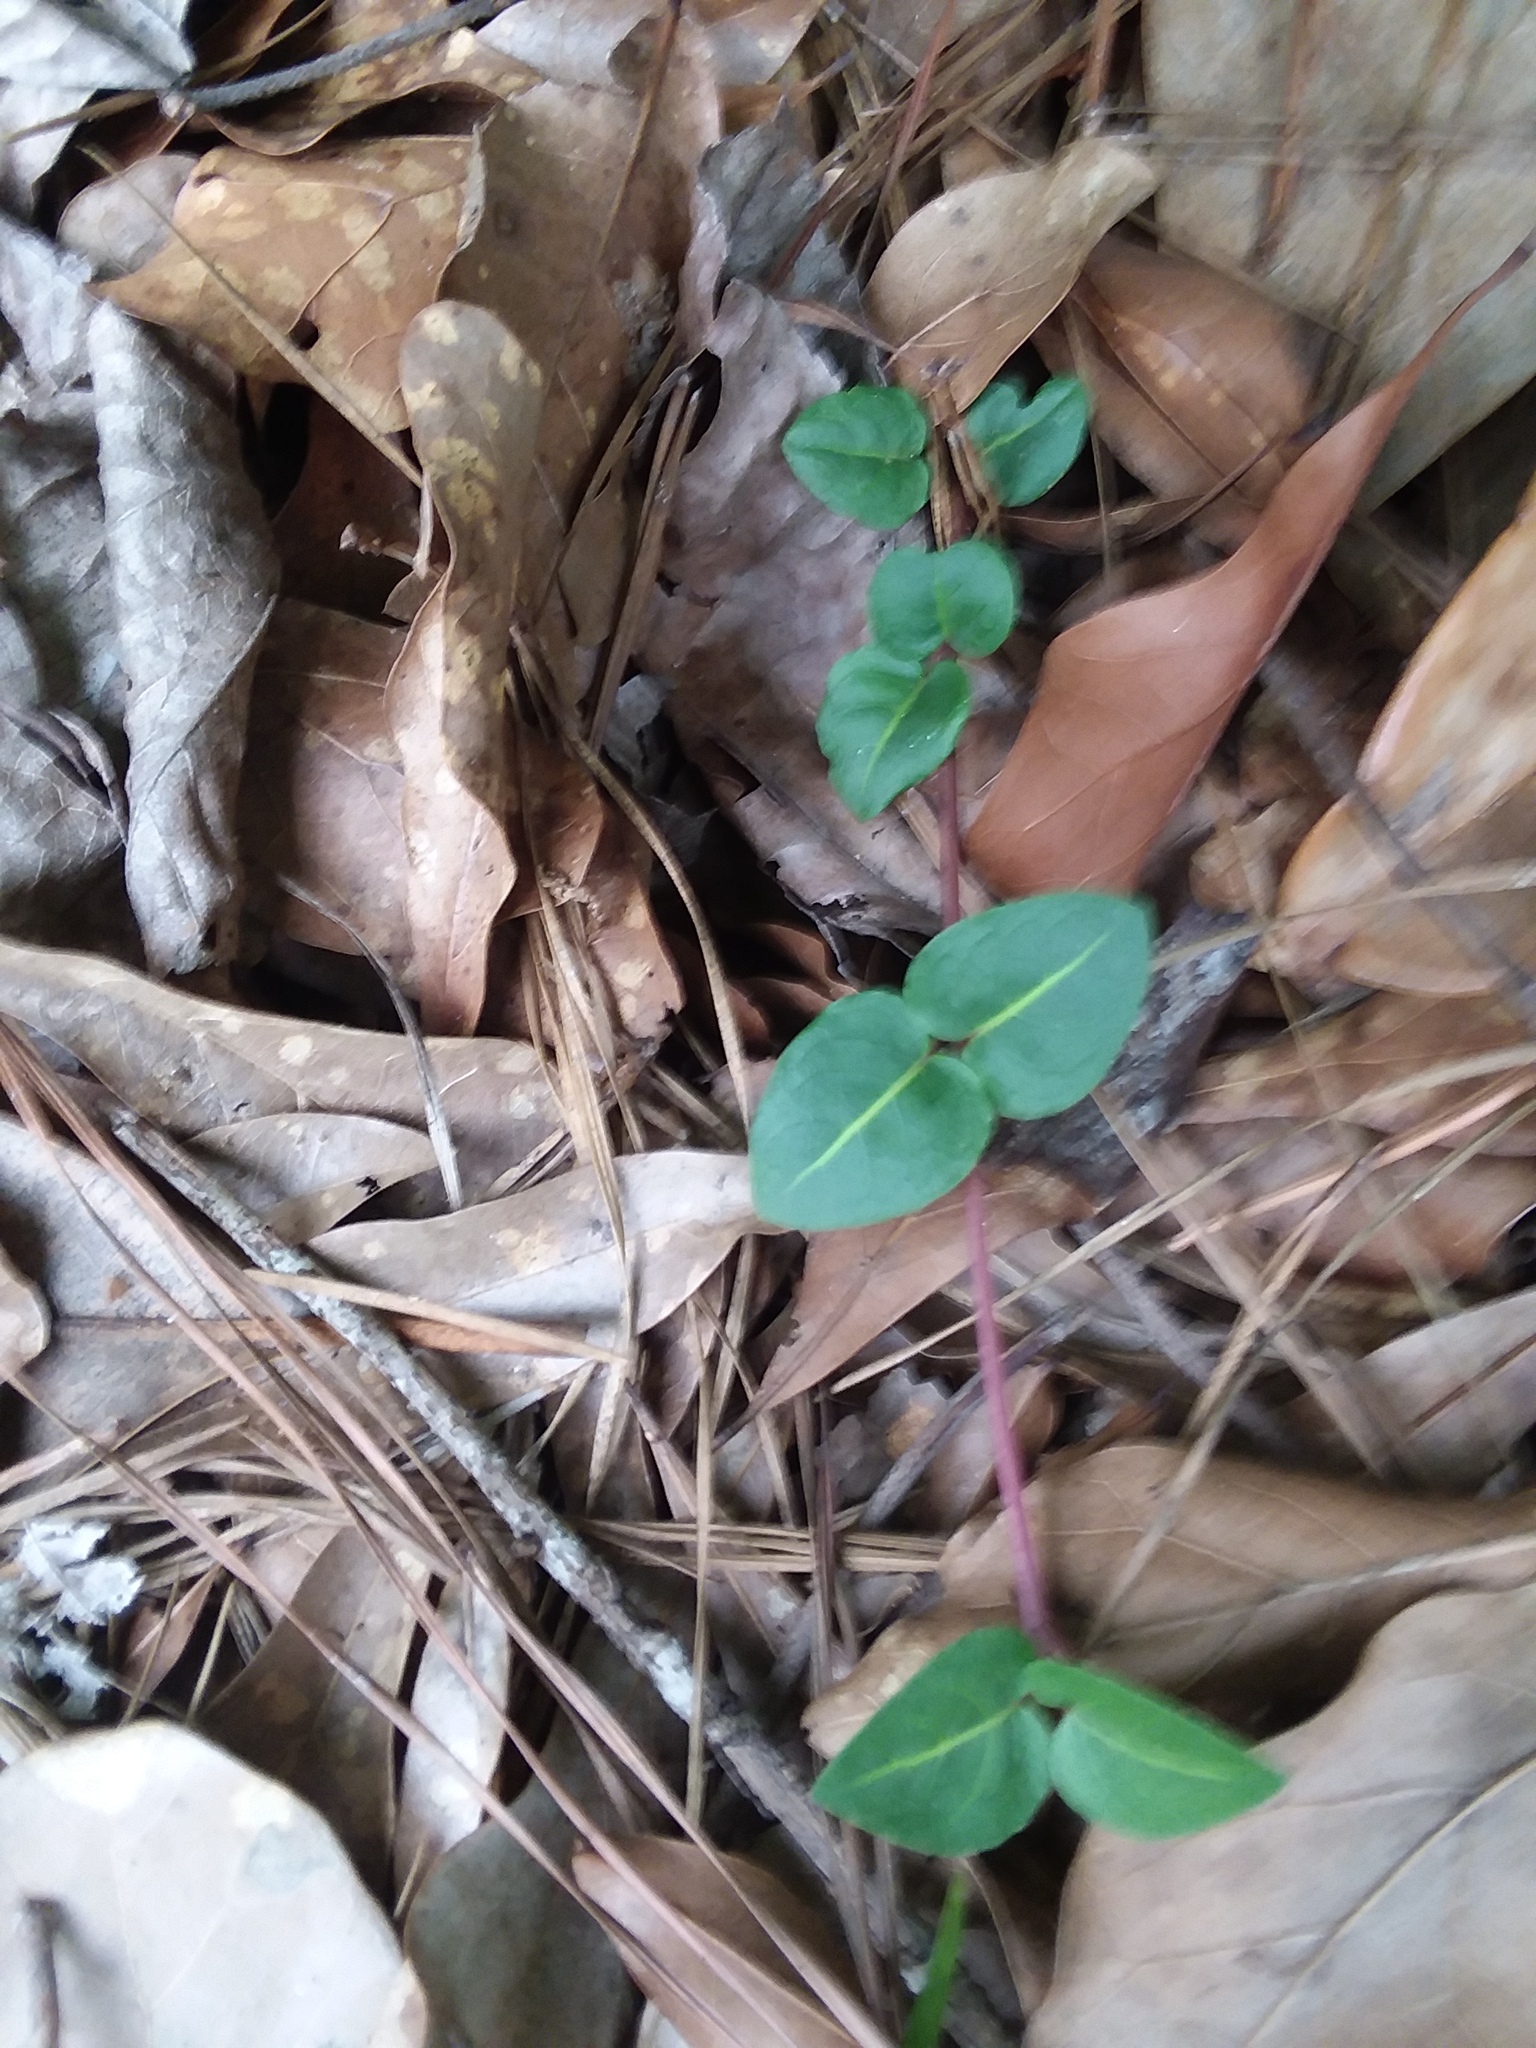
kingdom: Plantae
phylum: Tracheophyta
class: Magnoliopsida
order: Gentianales
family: Rubiaceae
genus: Mitchella
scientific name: Mitchella repens
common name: Partridge-berry
